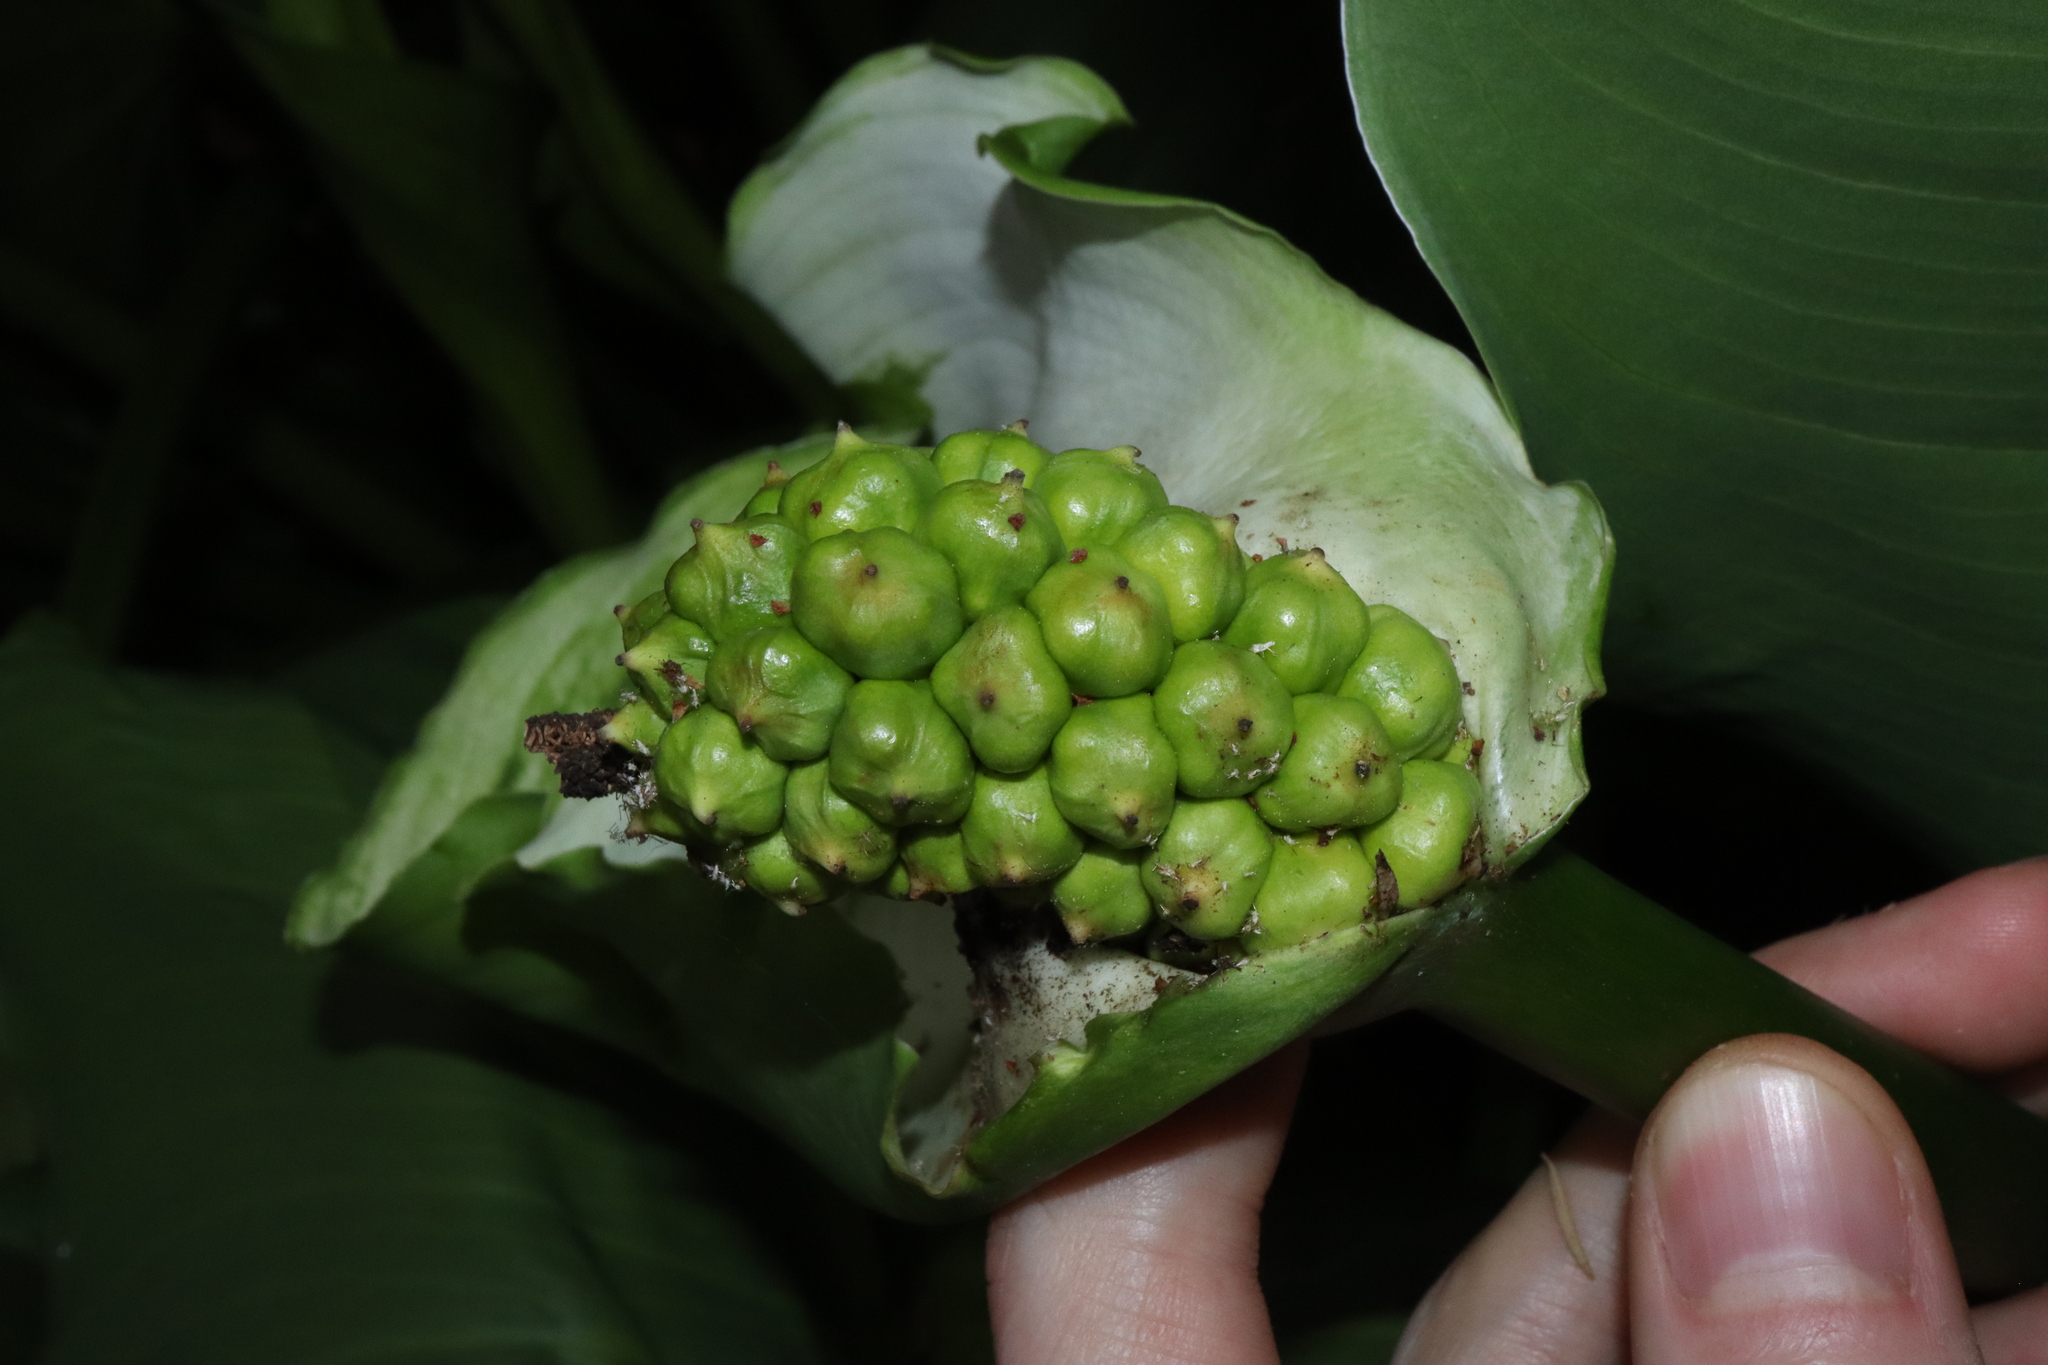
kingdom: Plantae
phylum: Tracheophyta
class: Liliopsida
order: Alismatales
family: Araceae
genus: Zantedeschia
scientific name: Zantedeschia aethiopica
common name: Altar-lily
